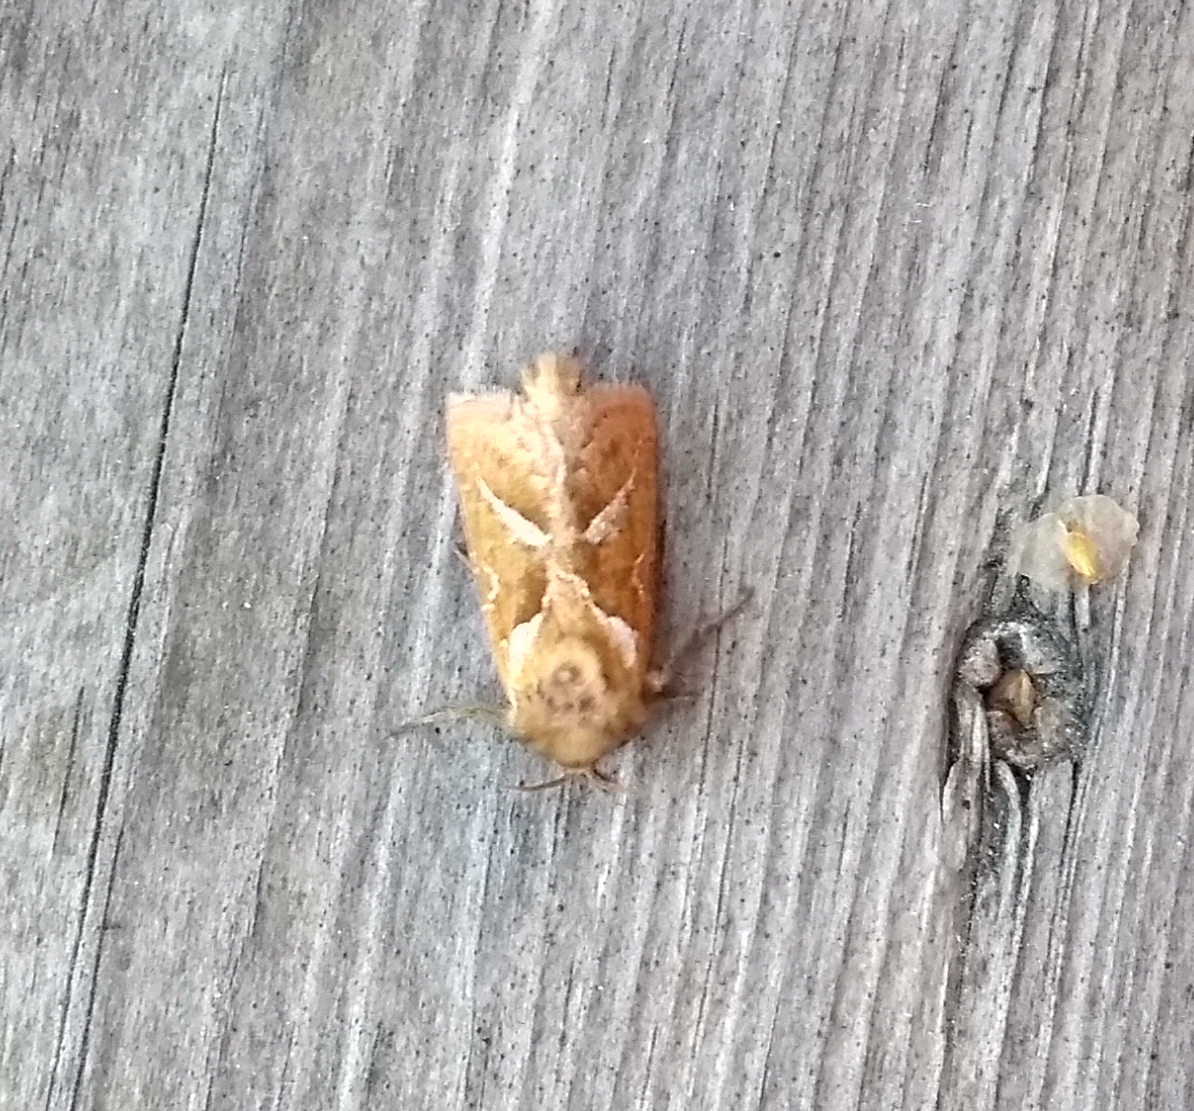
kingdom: Animalia
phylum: Arthropoda
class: Insecta
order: Lepidoptera
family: Hepialidae
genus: Triodia
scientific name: Triodia sylvina
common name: Orange swift
